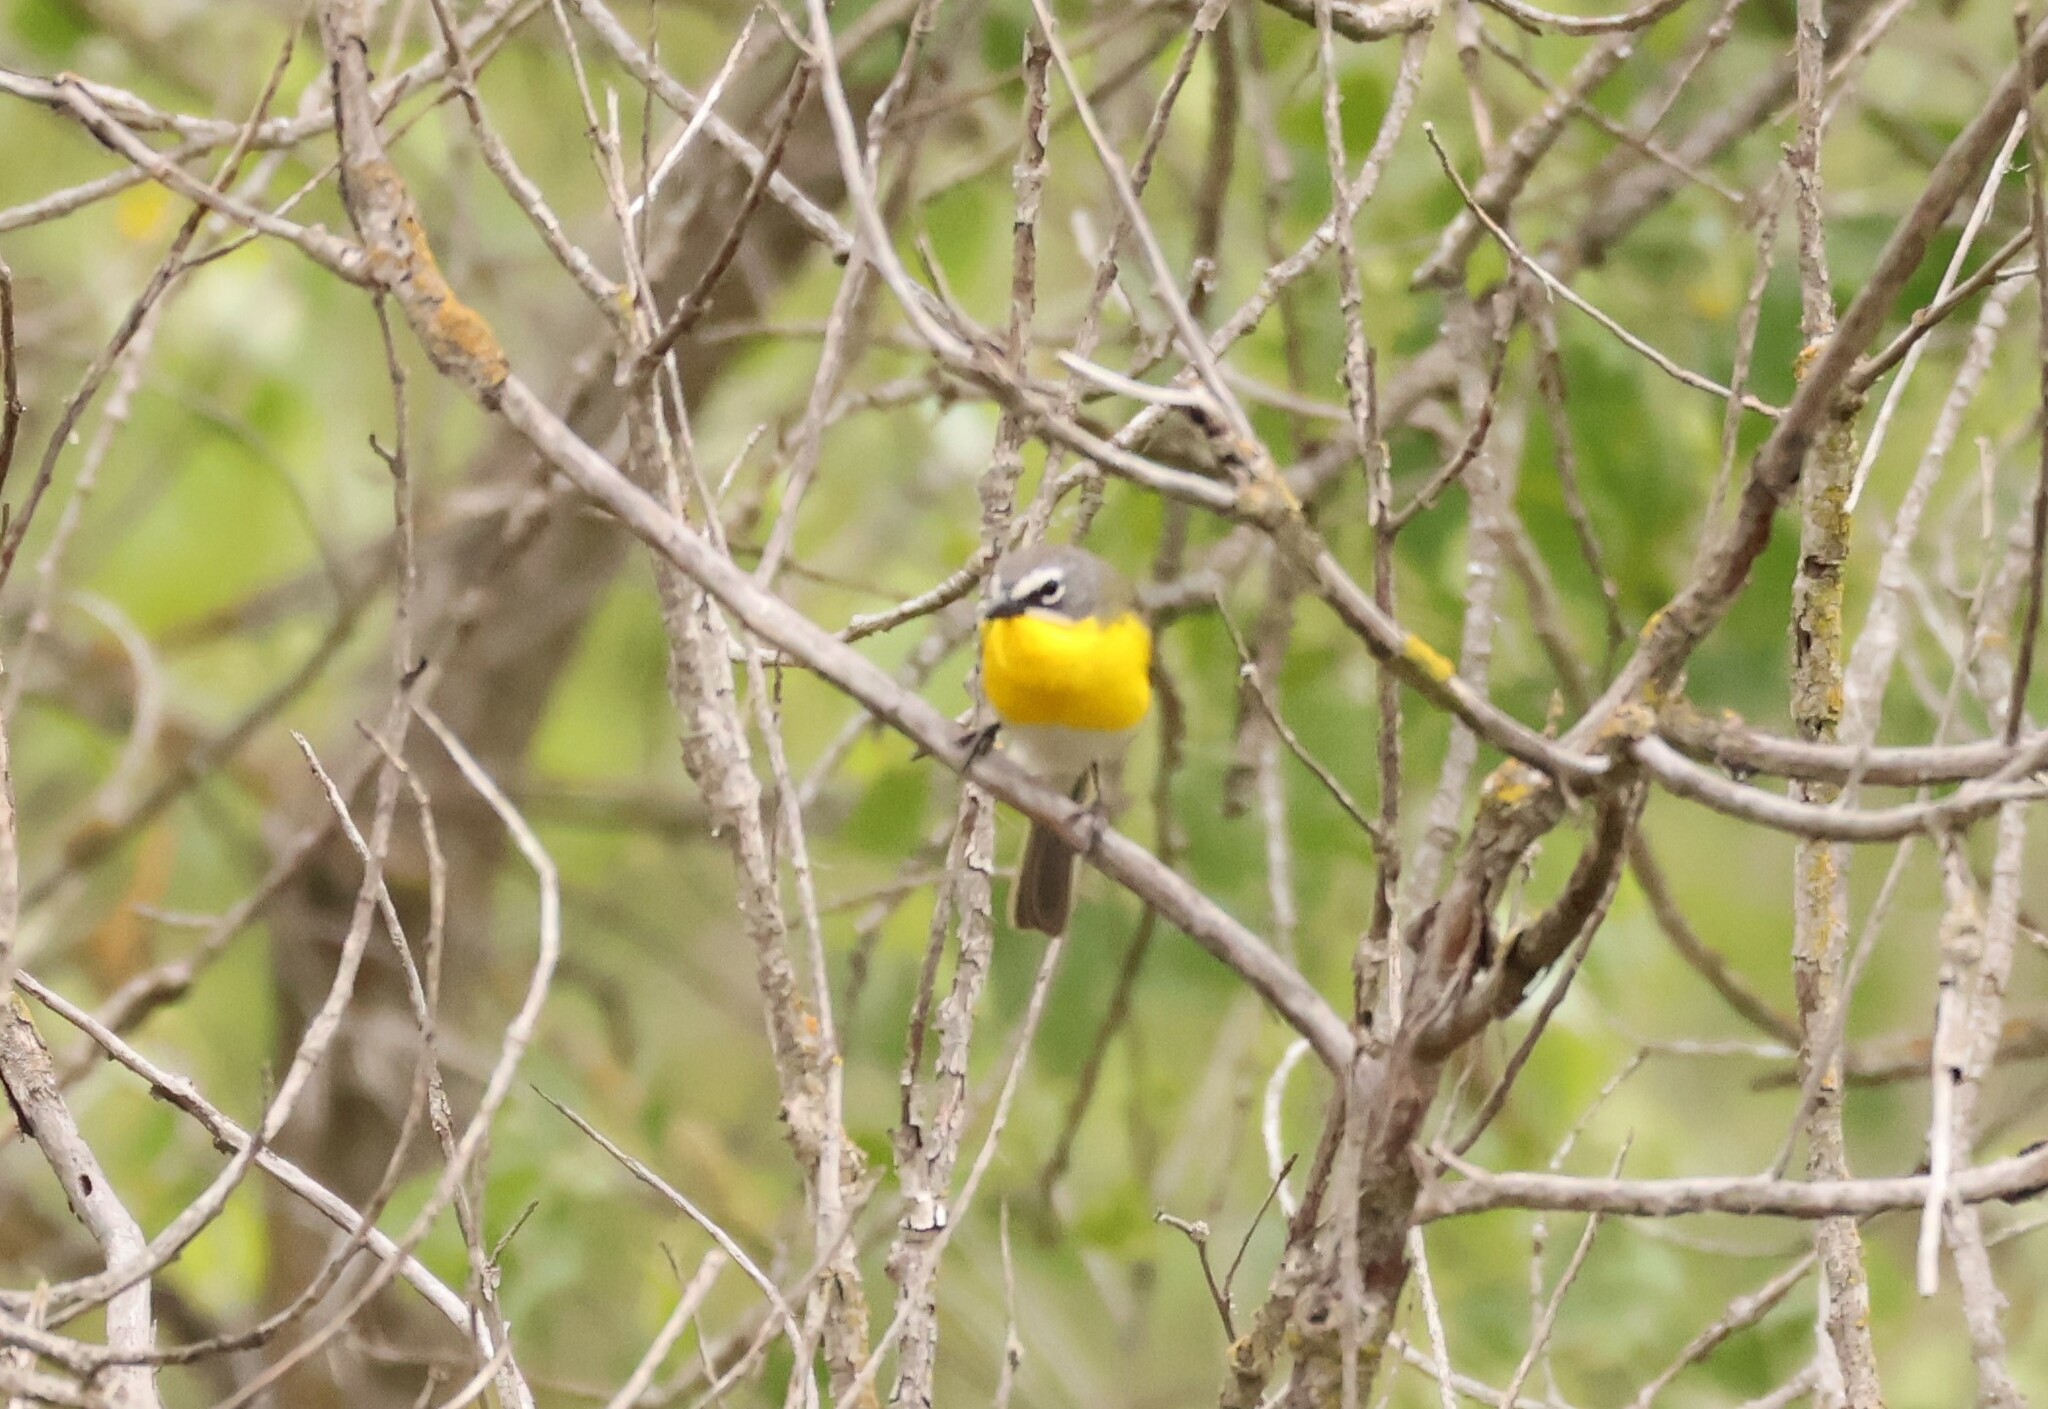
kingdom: Animalia
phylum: Chordata
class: Aves
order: Passeriformes
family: Parulidae
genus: Icteria
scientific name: Icteria virens
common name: Yellow-breasted chat
